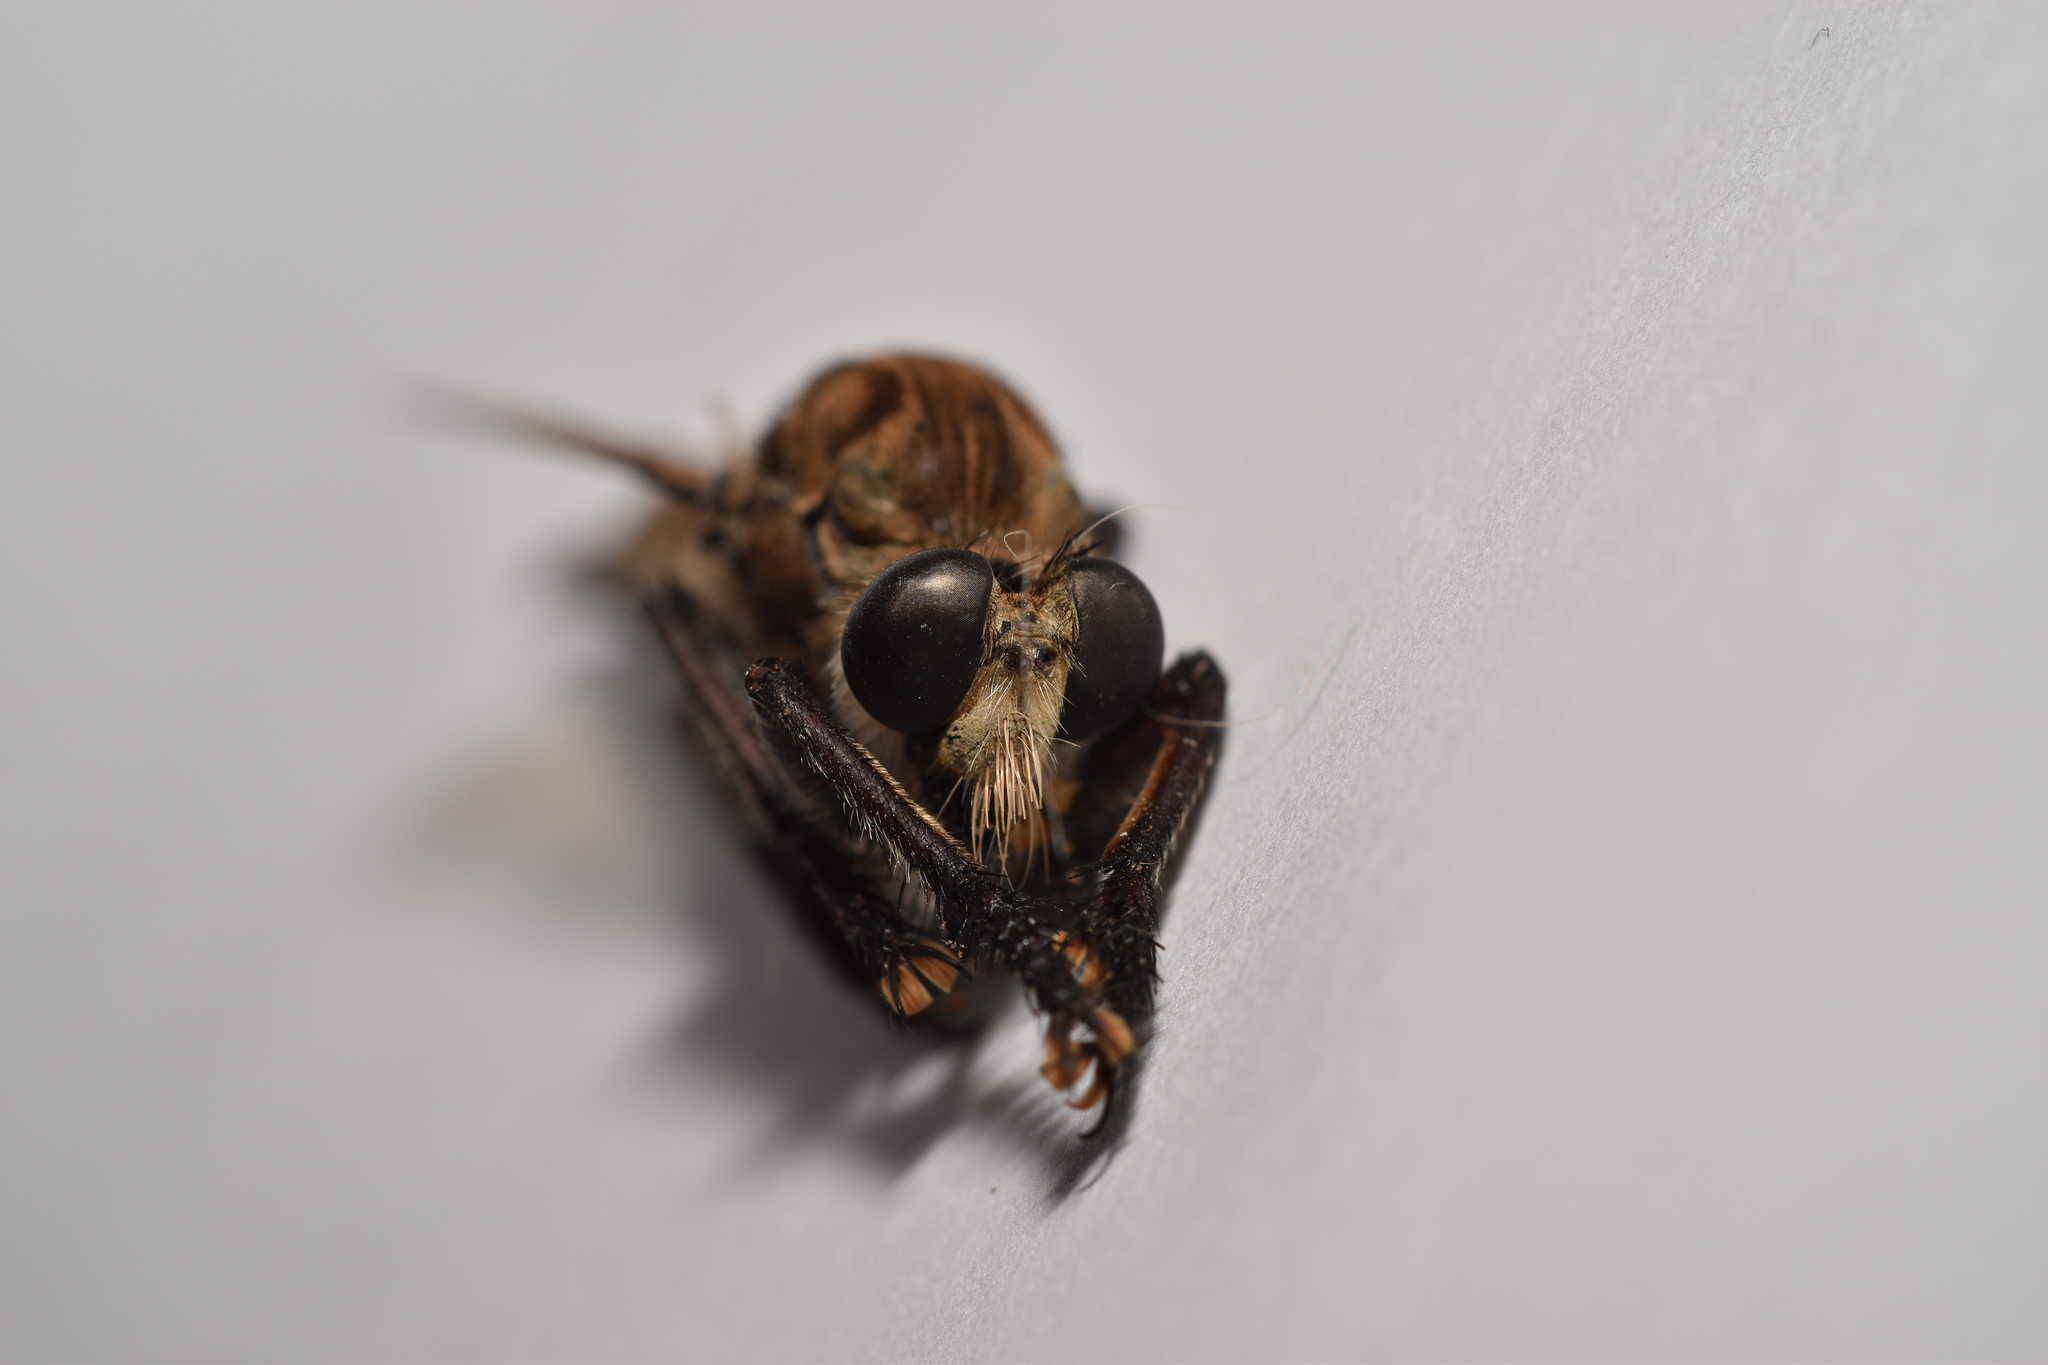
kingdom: Animalia
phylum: Arthropoda
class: Insecta
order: Diptera
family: Asilidae
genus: Promachus
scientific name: Promachus hinei
